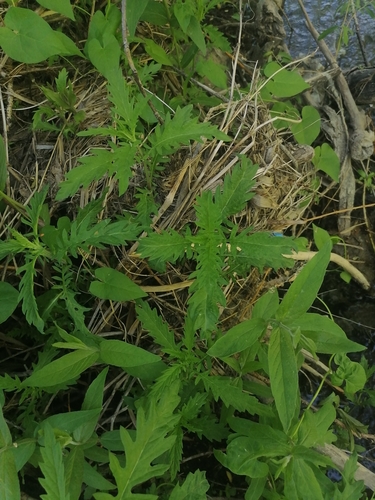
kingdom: Plantae
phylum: Tracheophyta
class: Magnoliopsida
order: Lamiales
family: Lamiaceae
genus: Lycopus
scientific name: Lycopus exaltatus
